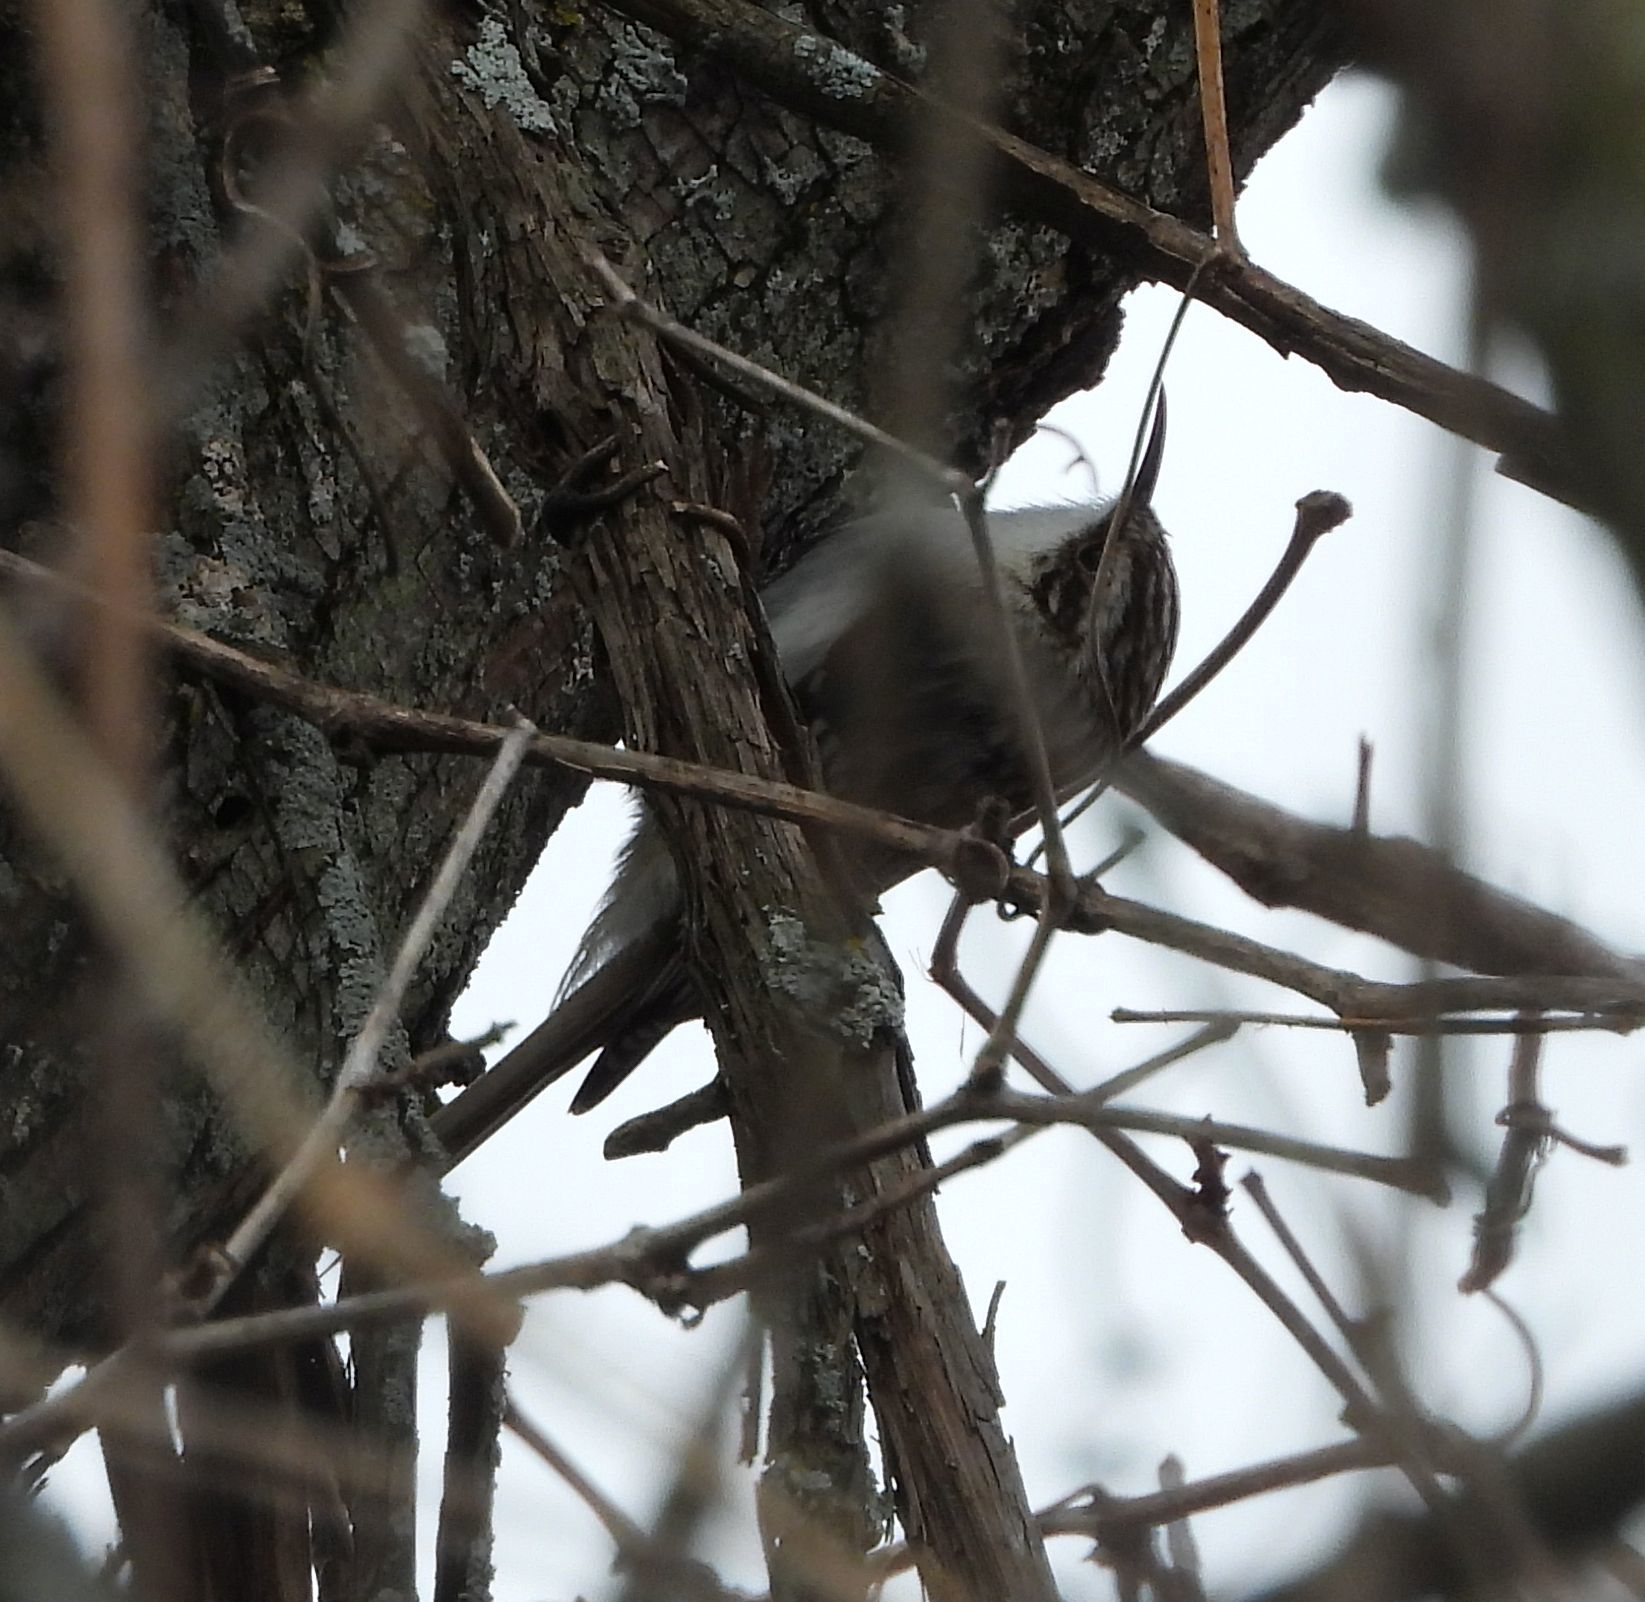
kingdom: Animalia
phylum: Chordata
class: Aves
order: Passeriformes
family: Certhiidae
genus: Certhia
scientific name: Certhia americana
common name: Brown creeper
